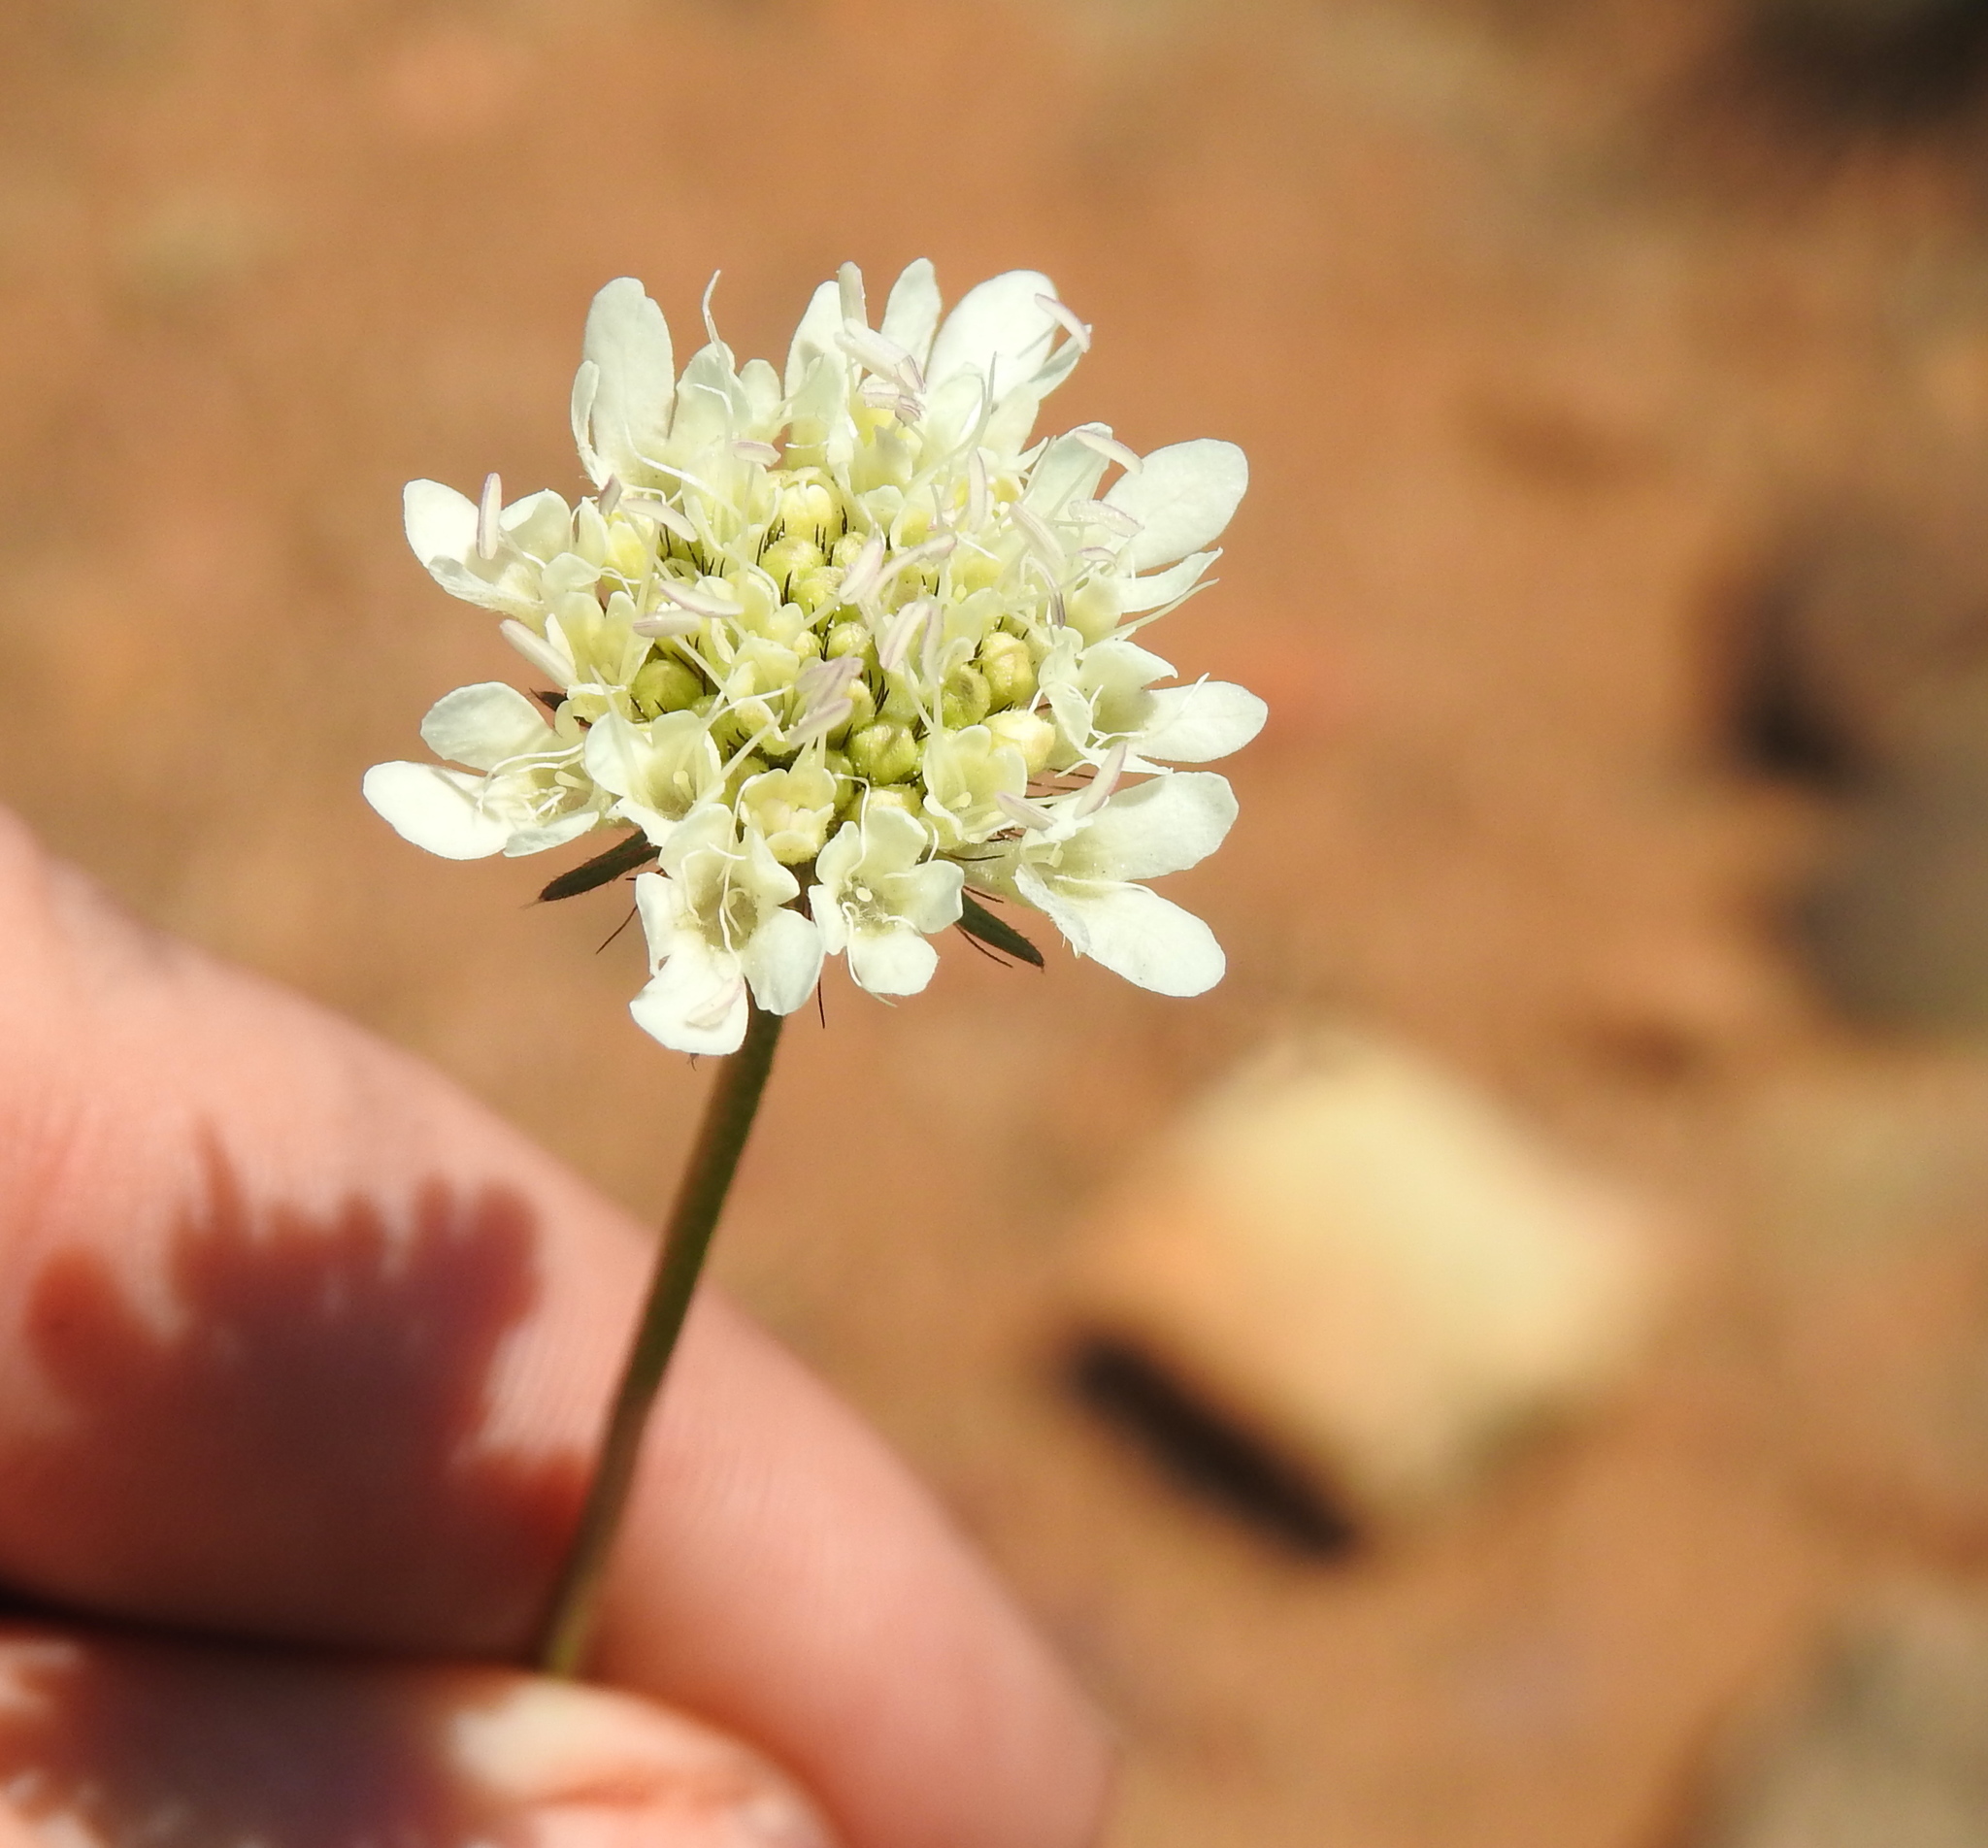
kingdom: Plantae
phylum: Tracheophyta
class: Magnoliopsida
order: Dipsacales
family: Caprifoliaceae
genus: Scabiosa
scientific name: Scabiosa columbaria
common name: Small scabious
